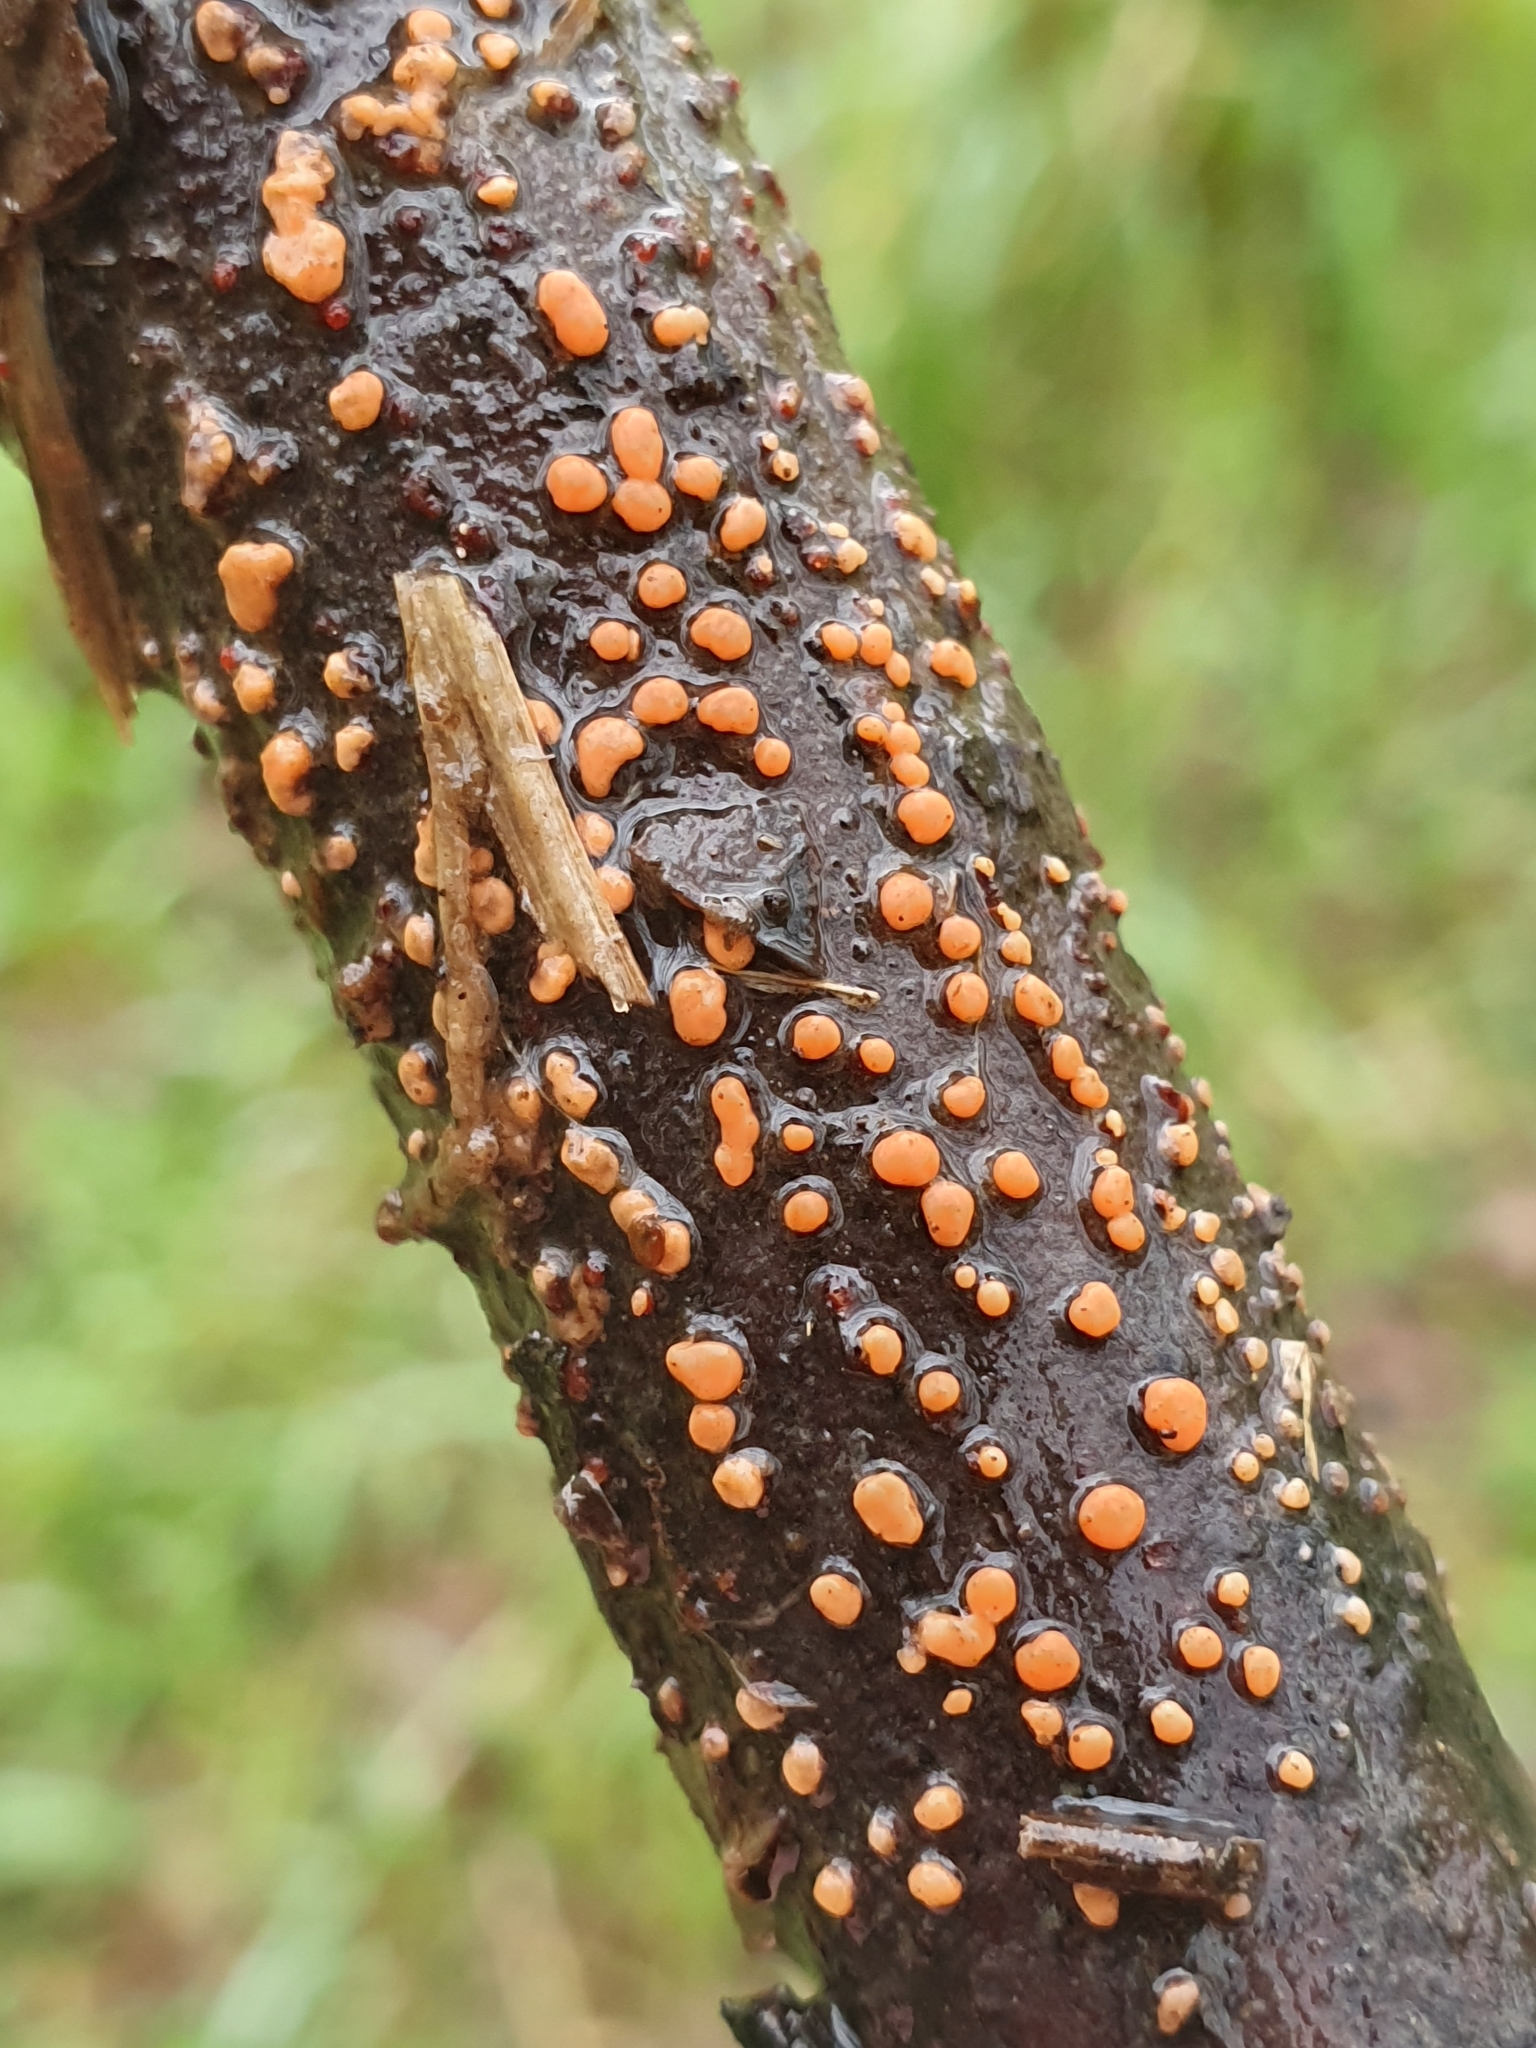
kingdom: Fungi
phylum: Ascomycota
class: Sordariomycetes
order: Hypocreales
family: Nectriaceae
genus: Nectria
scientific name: Nectria cinnabarina
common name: Coral spot
